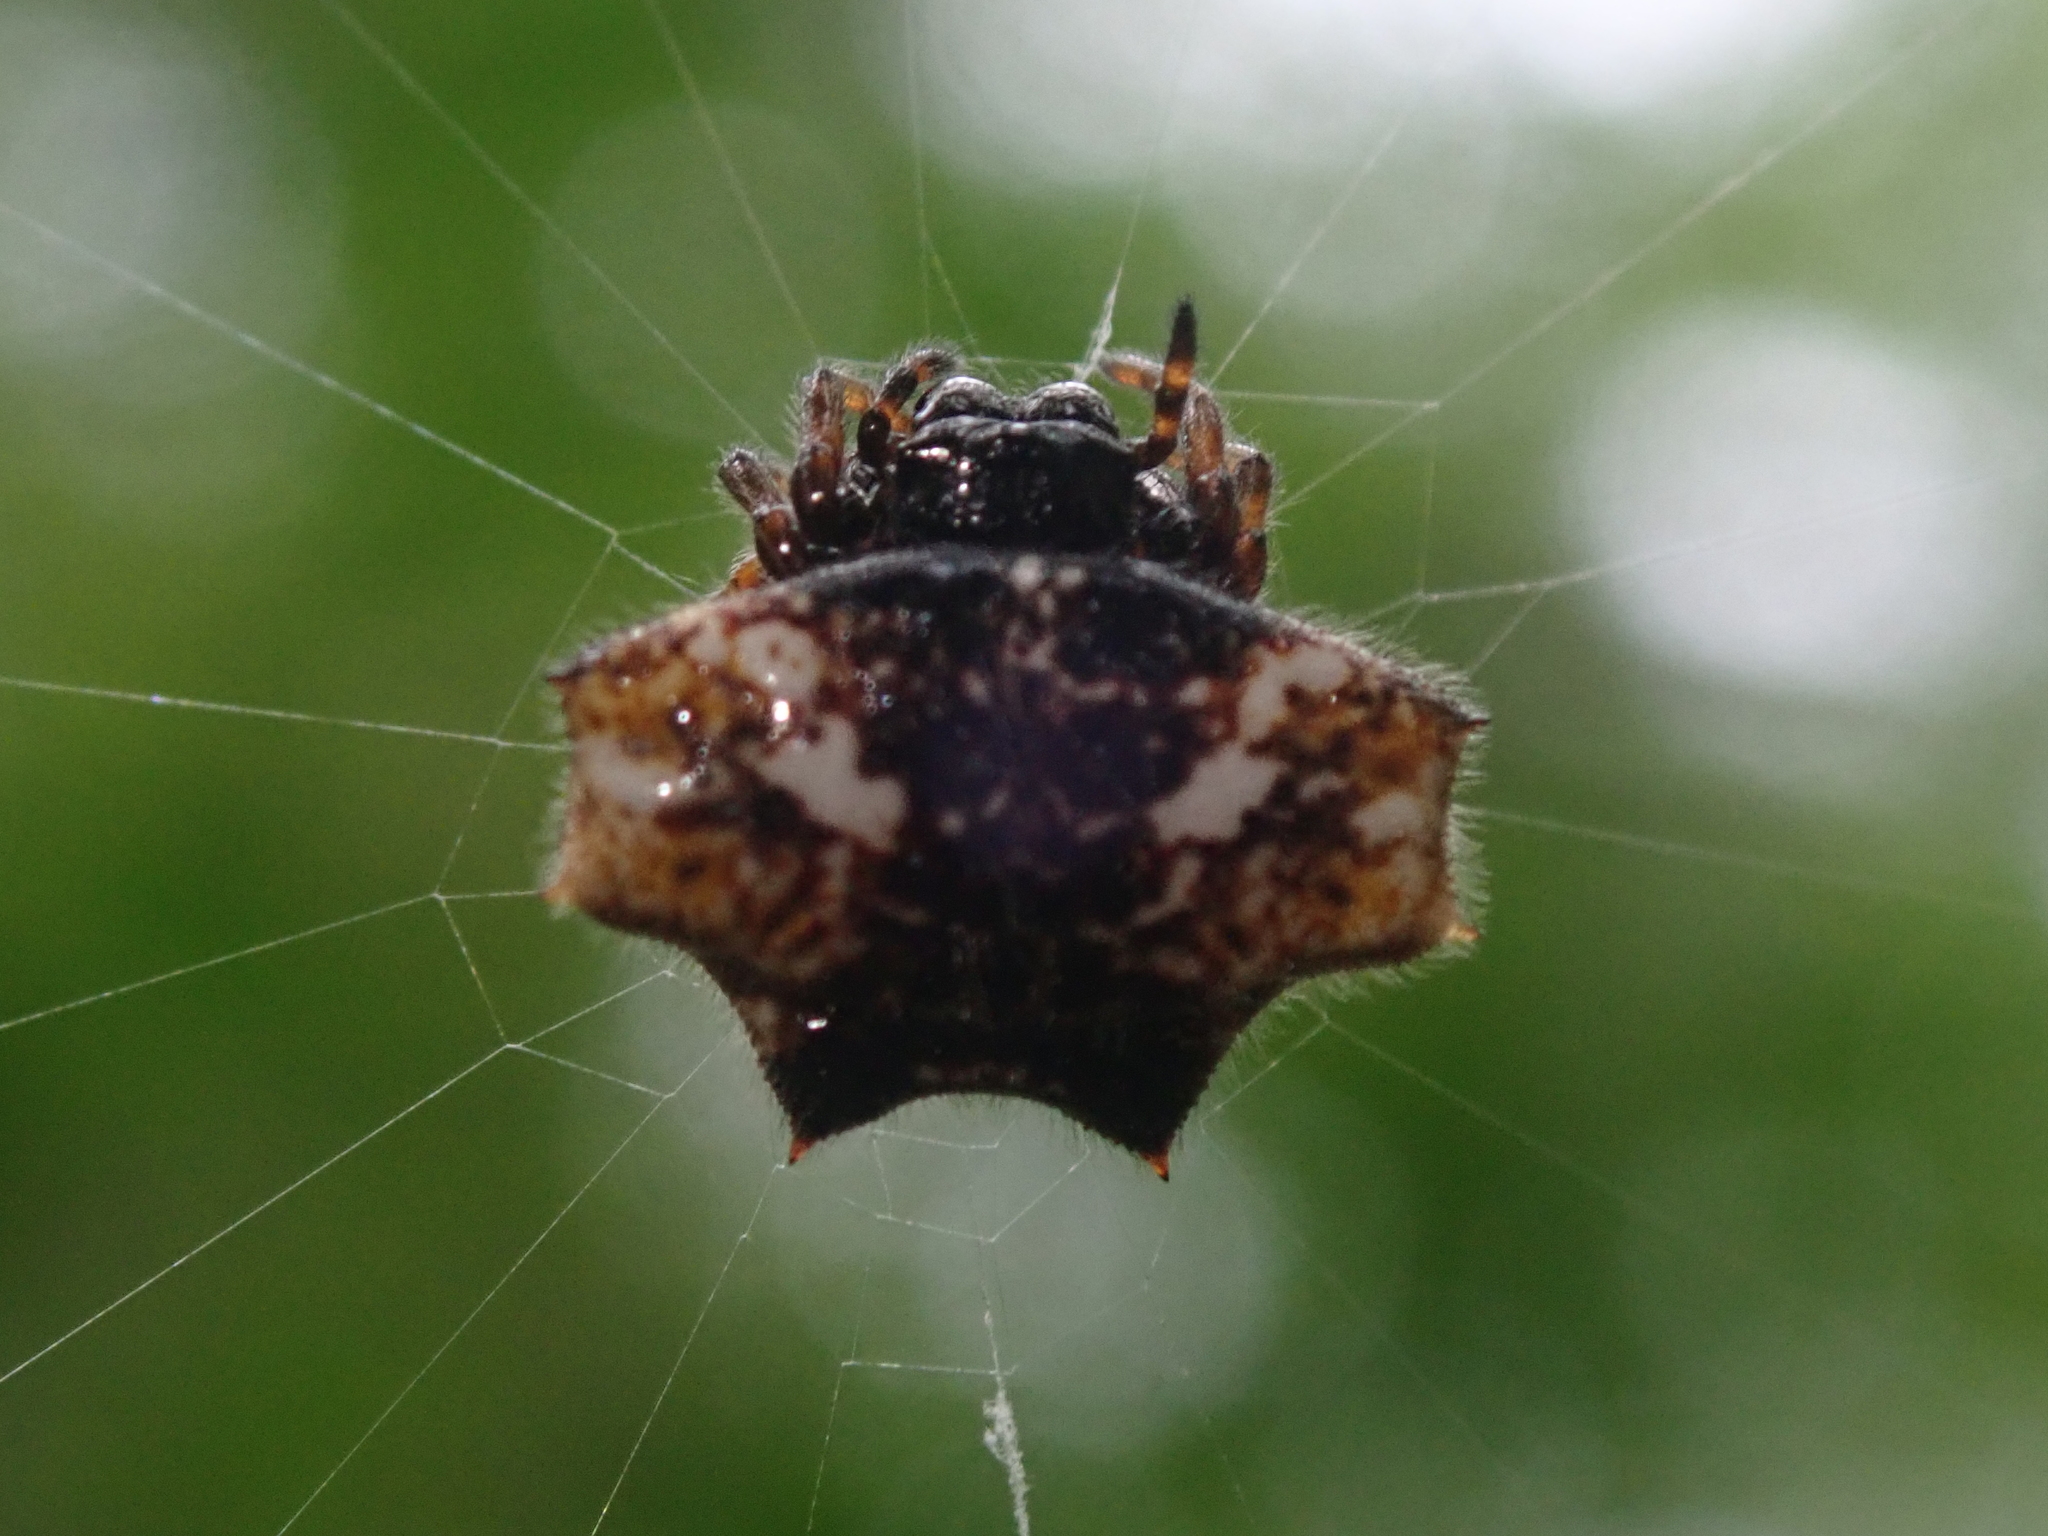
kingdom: Animalia
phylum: Arthropoda
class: Arachnida
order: Araneae
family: Araneidae
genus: Gasteracantha
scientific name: Gasteracantha cancriformis
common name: Orb weavers
